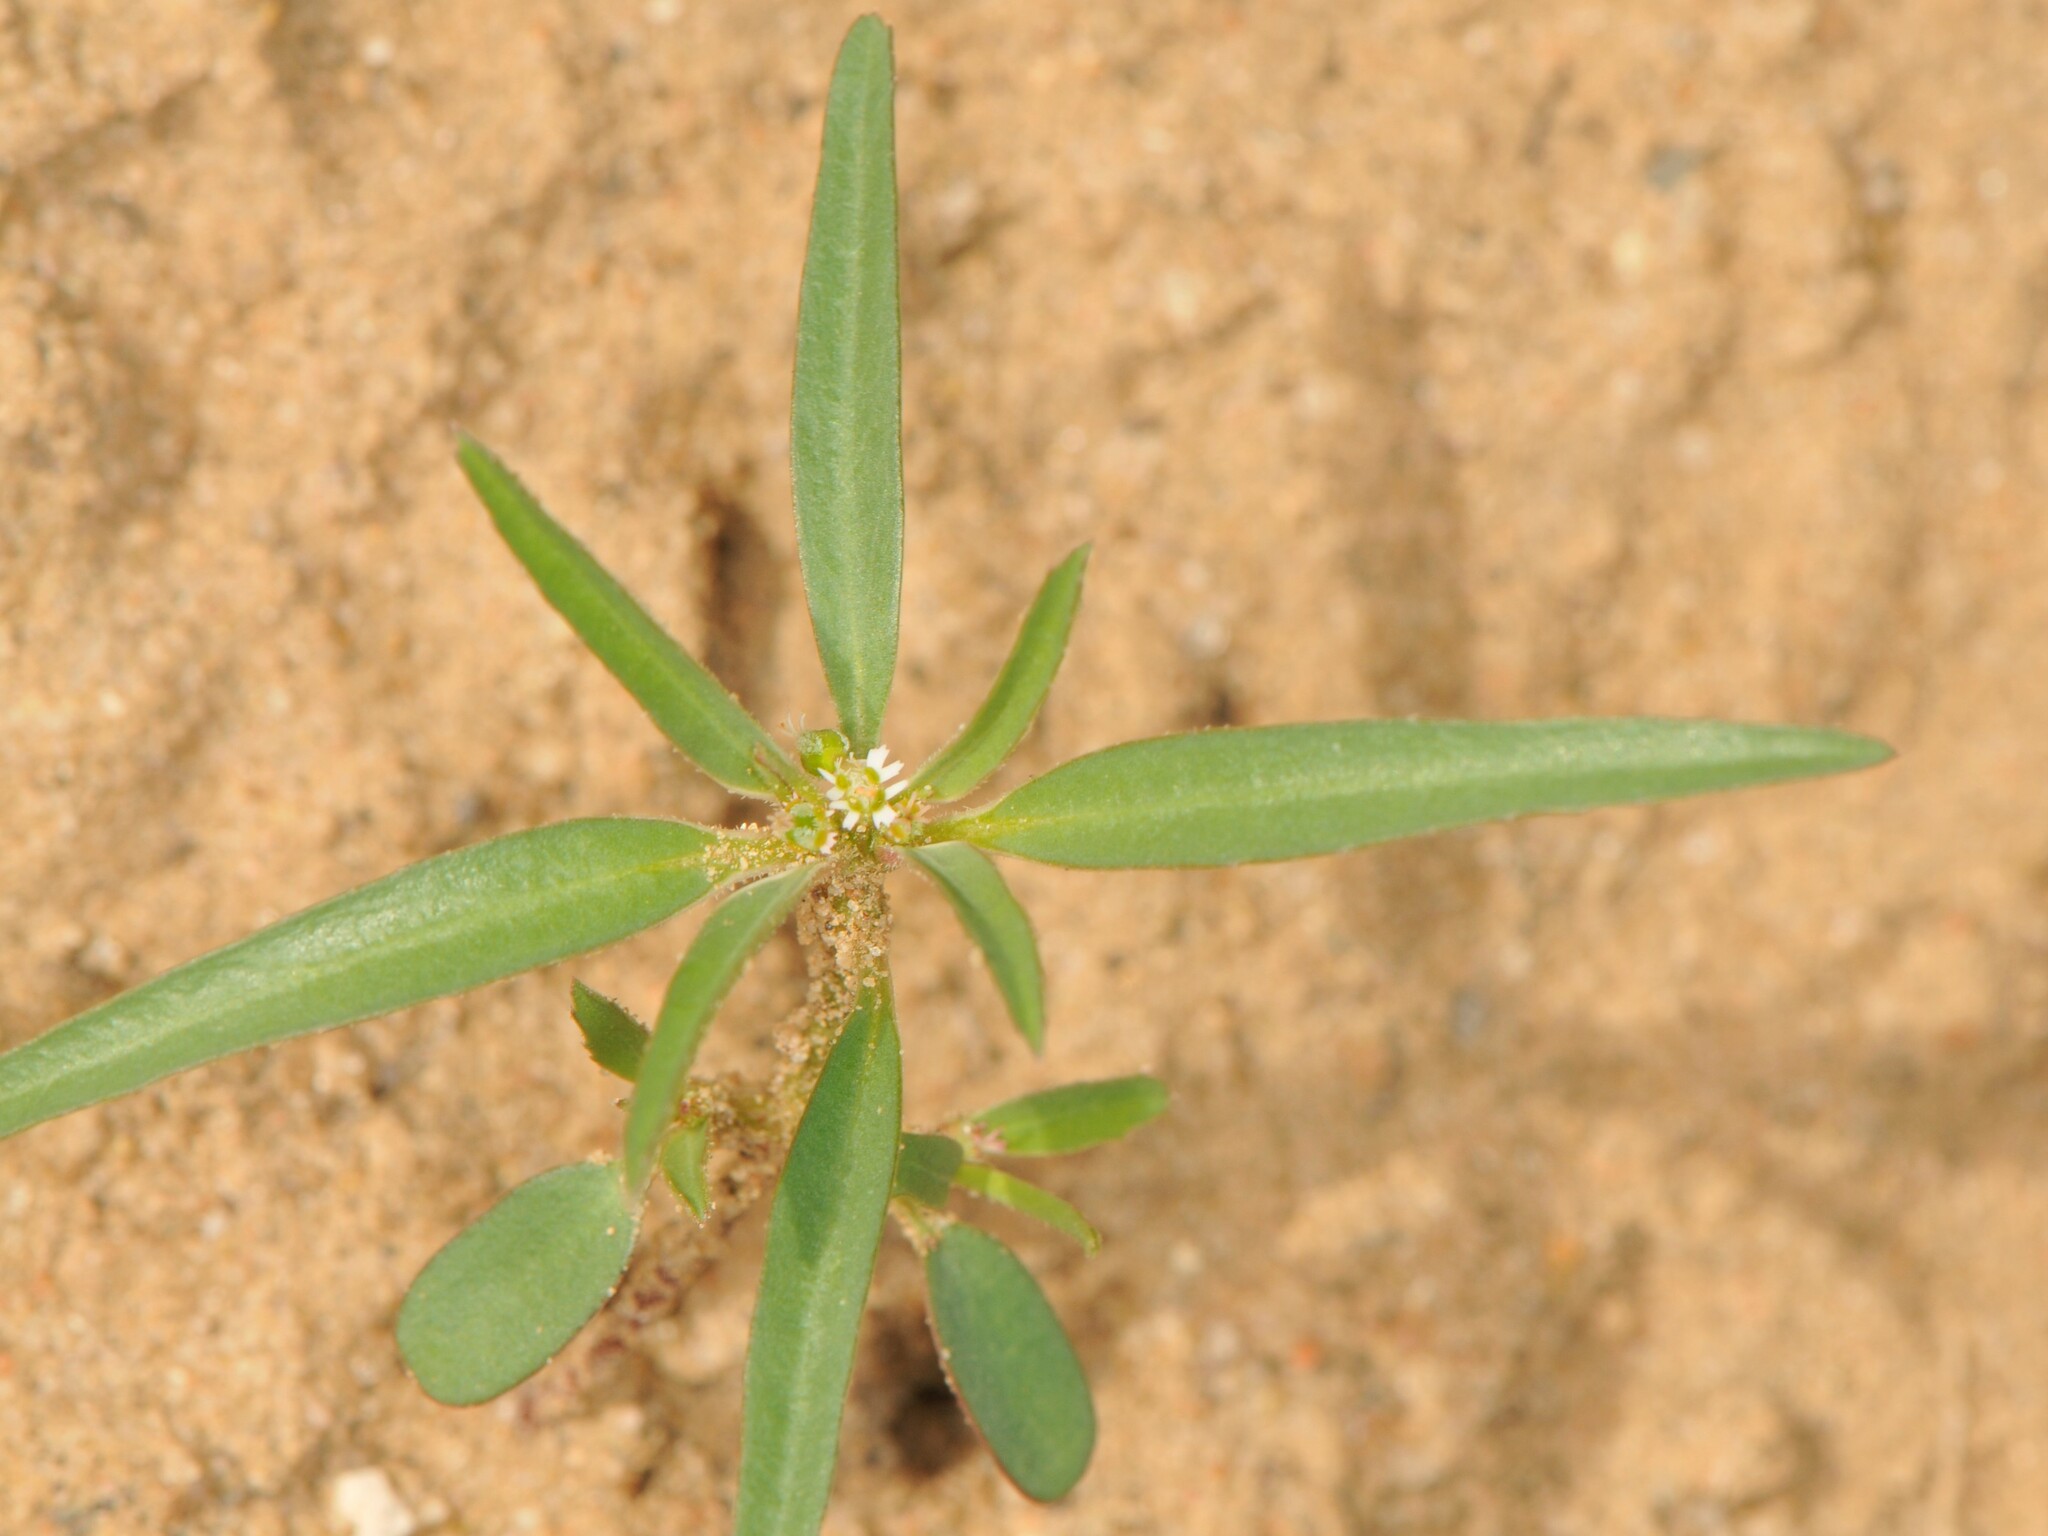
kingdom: Plantae
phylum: Tracheophyta
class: Magnoliopsida
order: Malpighiales
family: Euphorbiaceae
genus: Euphorbia
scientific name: Euphorbia exstipulata
